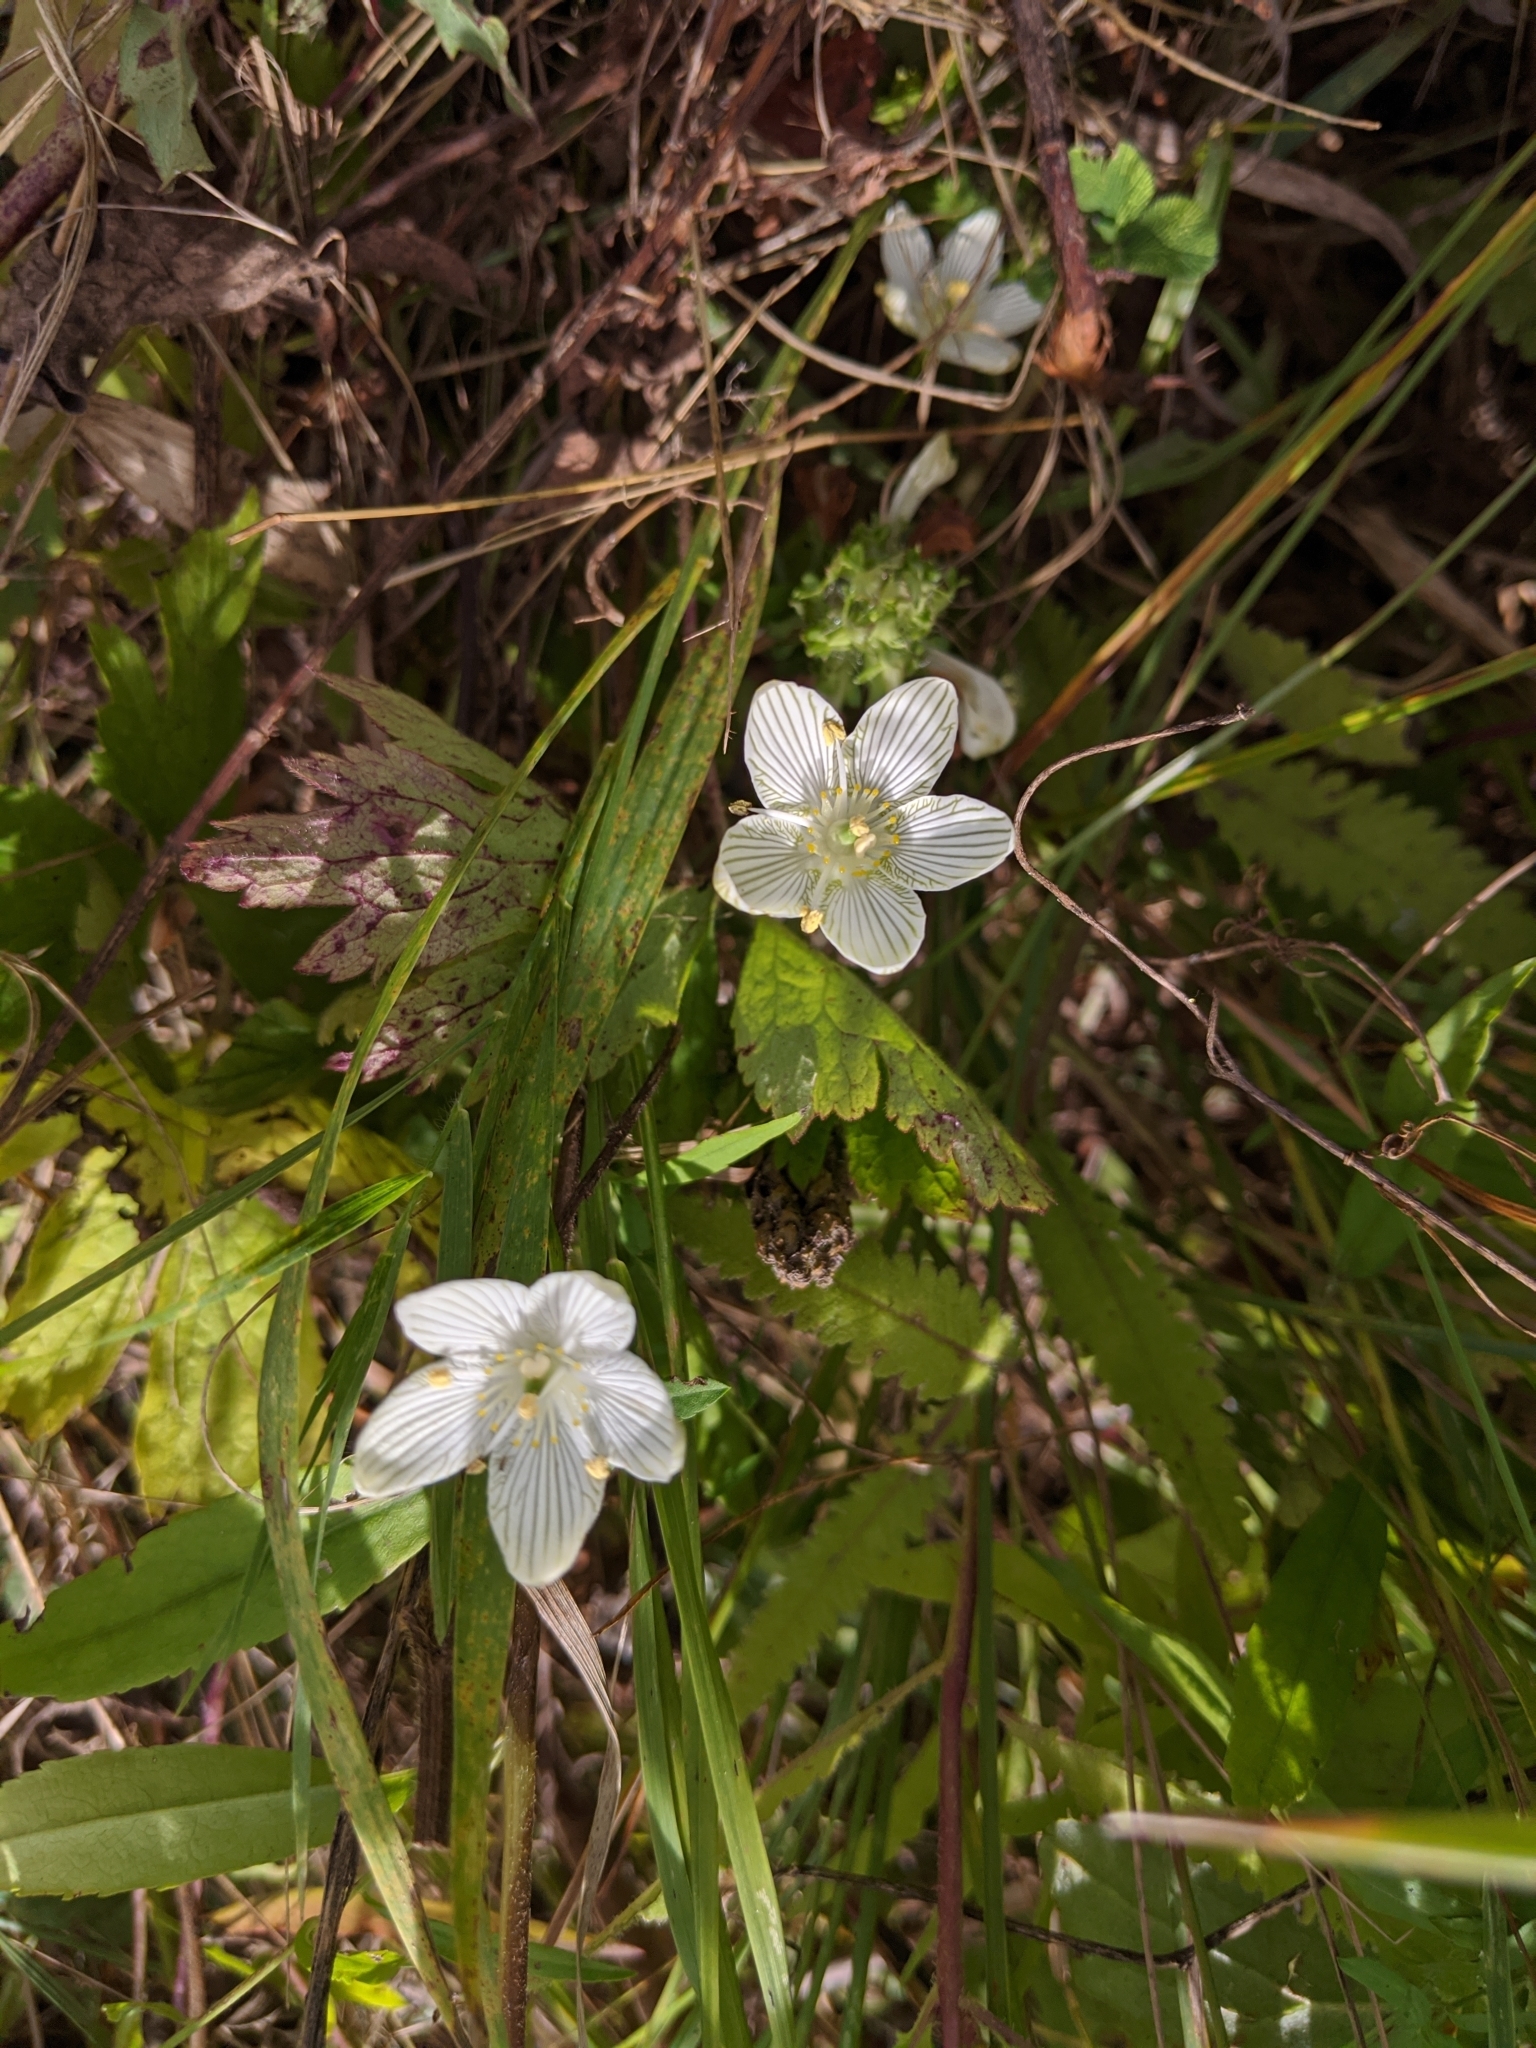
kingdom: Plantae
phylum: Tracheophyta
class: Magnoliopsida
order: Celastrales
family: Parnassiaceae
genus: Parnassia
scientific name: Parnassia glauca
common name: American grass-of-parnassus
